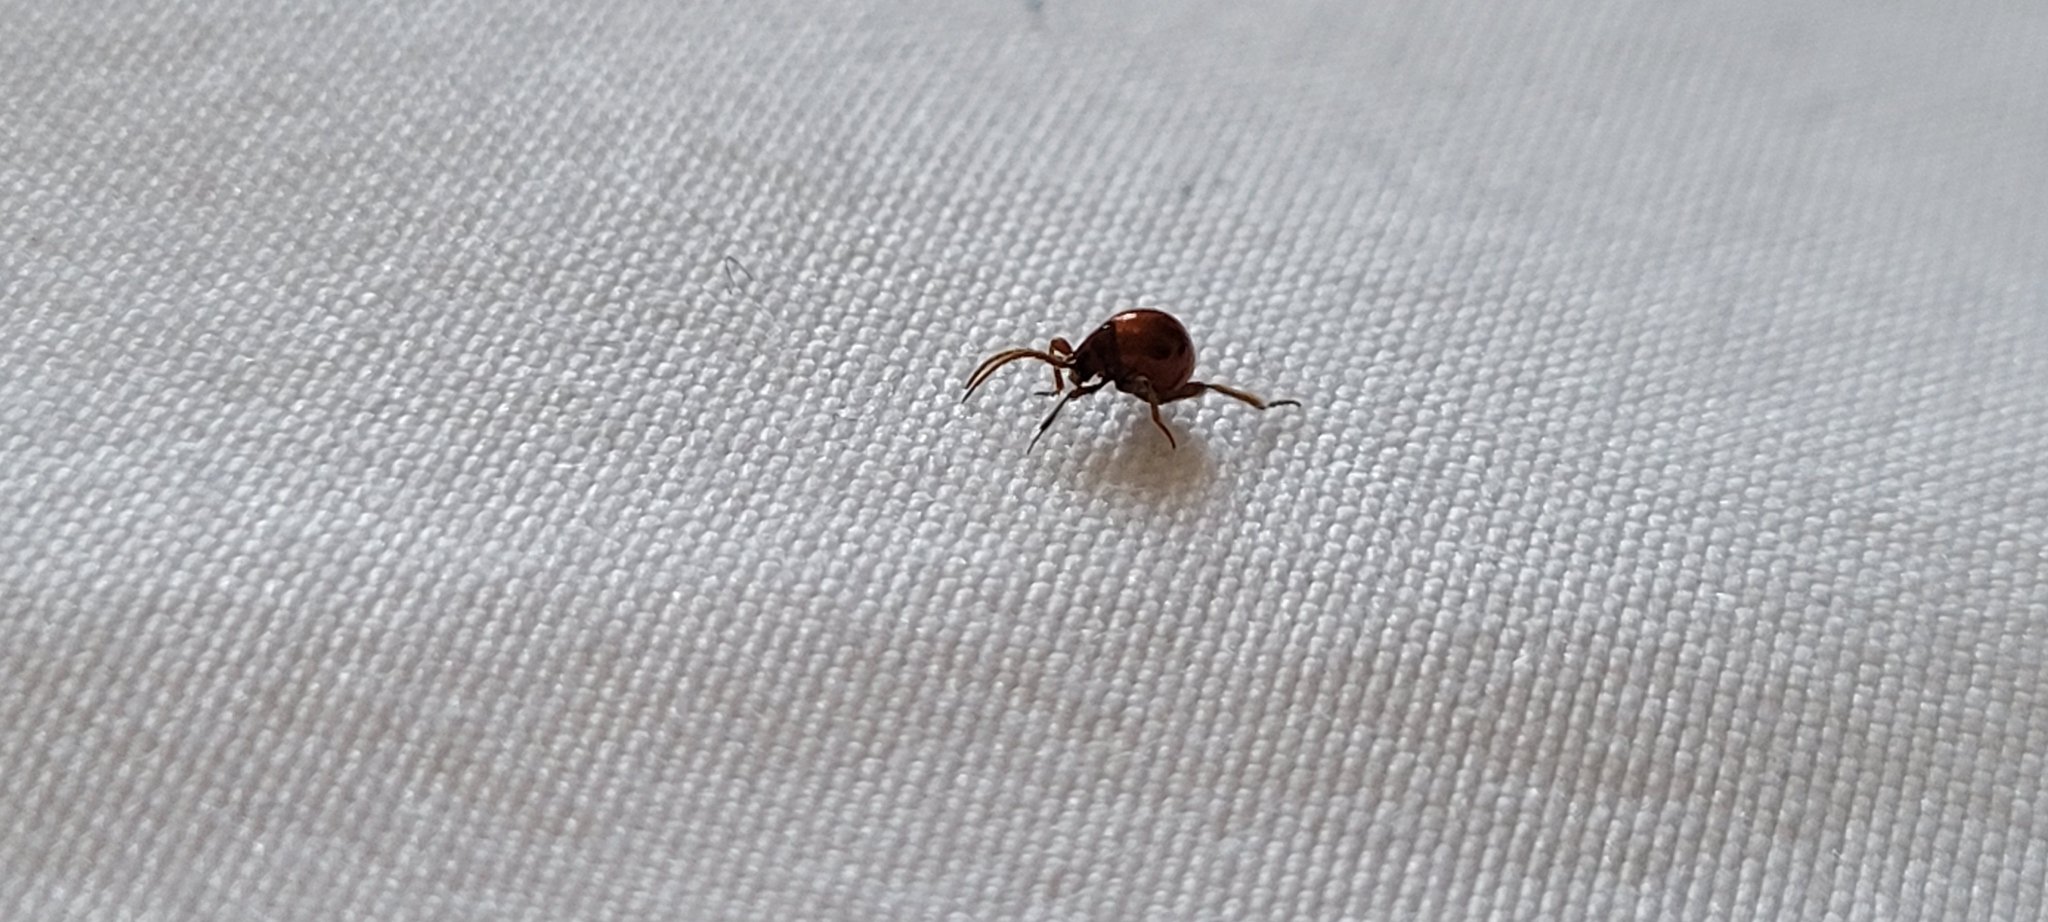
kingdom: Animalia
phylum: Arthropoda
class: Insecta
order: Coleoptera
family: Ptinidae
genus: Gibbium
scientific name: Gibbium aequinoctiale
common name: Smooth spider beetle
